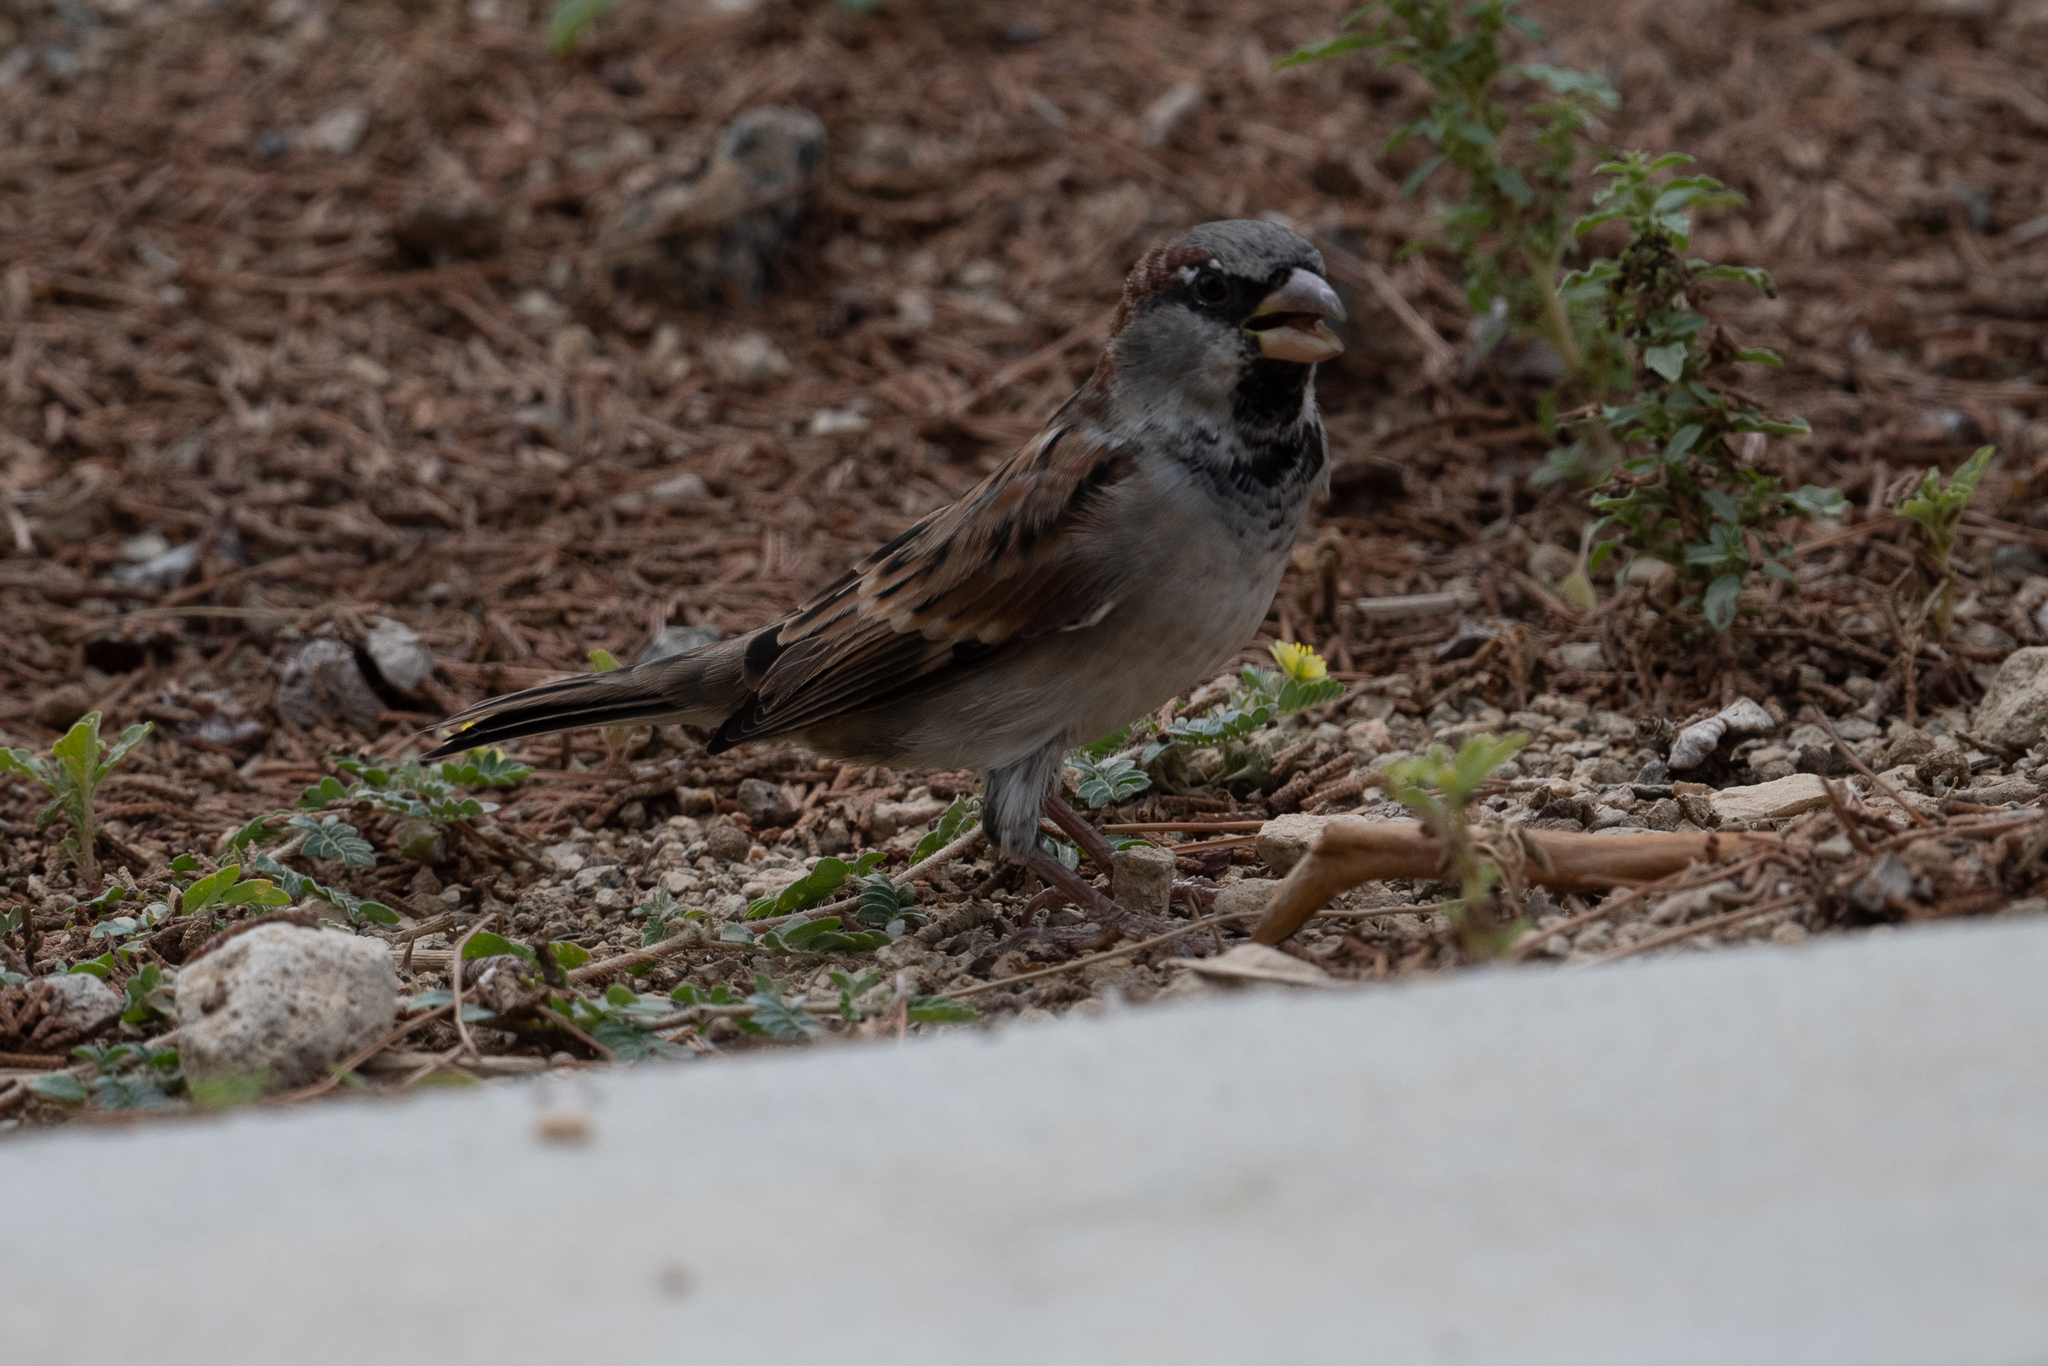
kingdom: Animalia
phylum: Chordata
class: Aves
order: Passeriformes
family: Passeridae
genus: Passer
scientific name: Passer domesticus
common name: House sparrow
